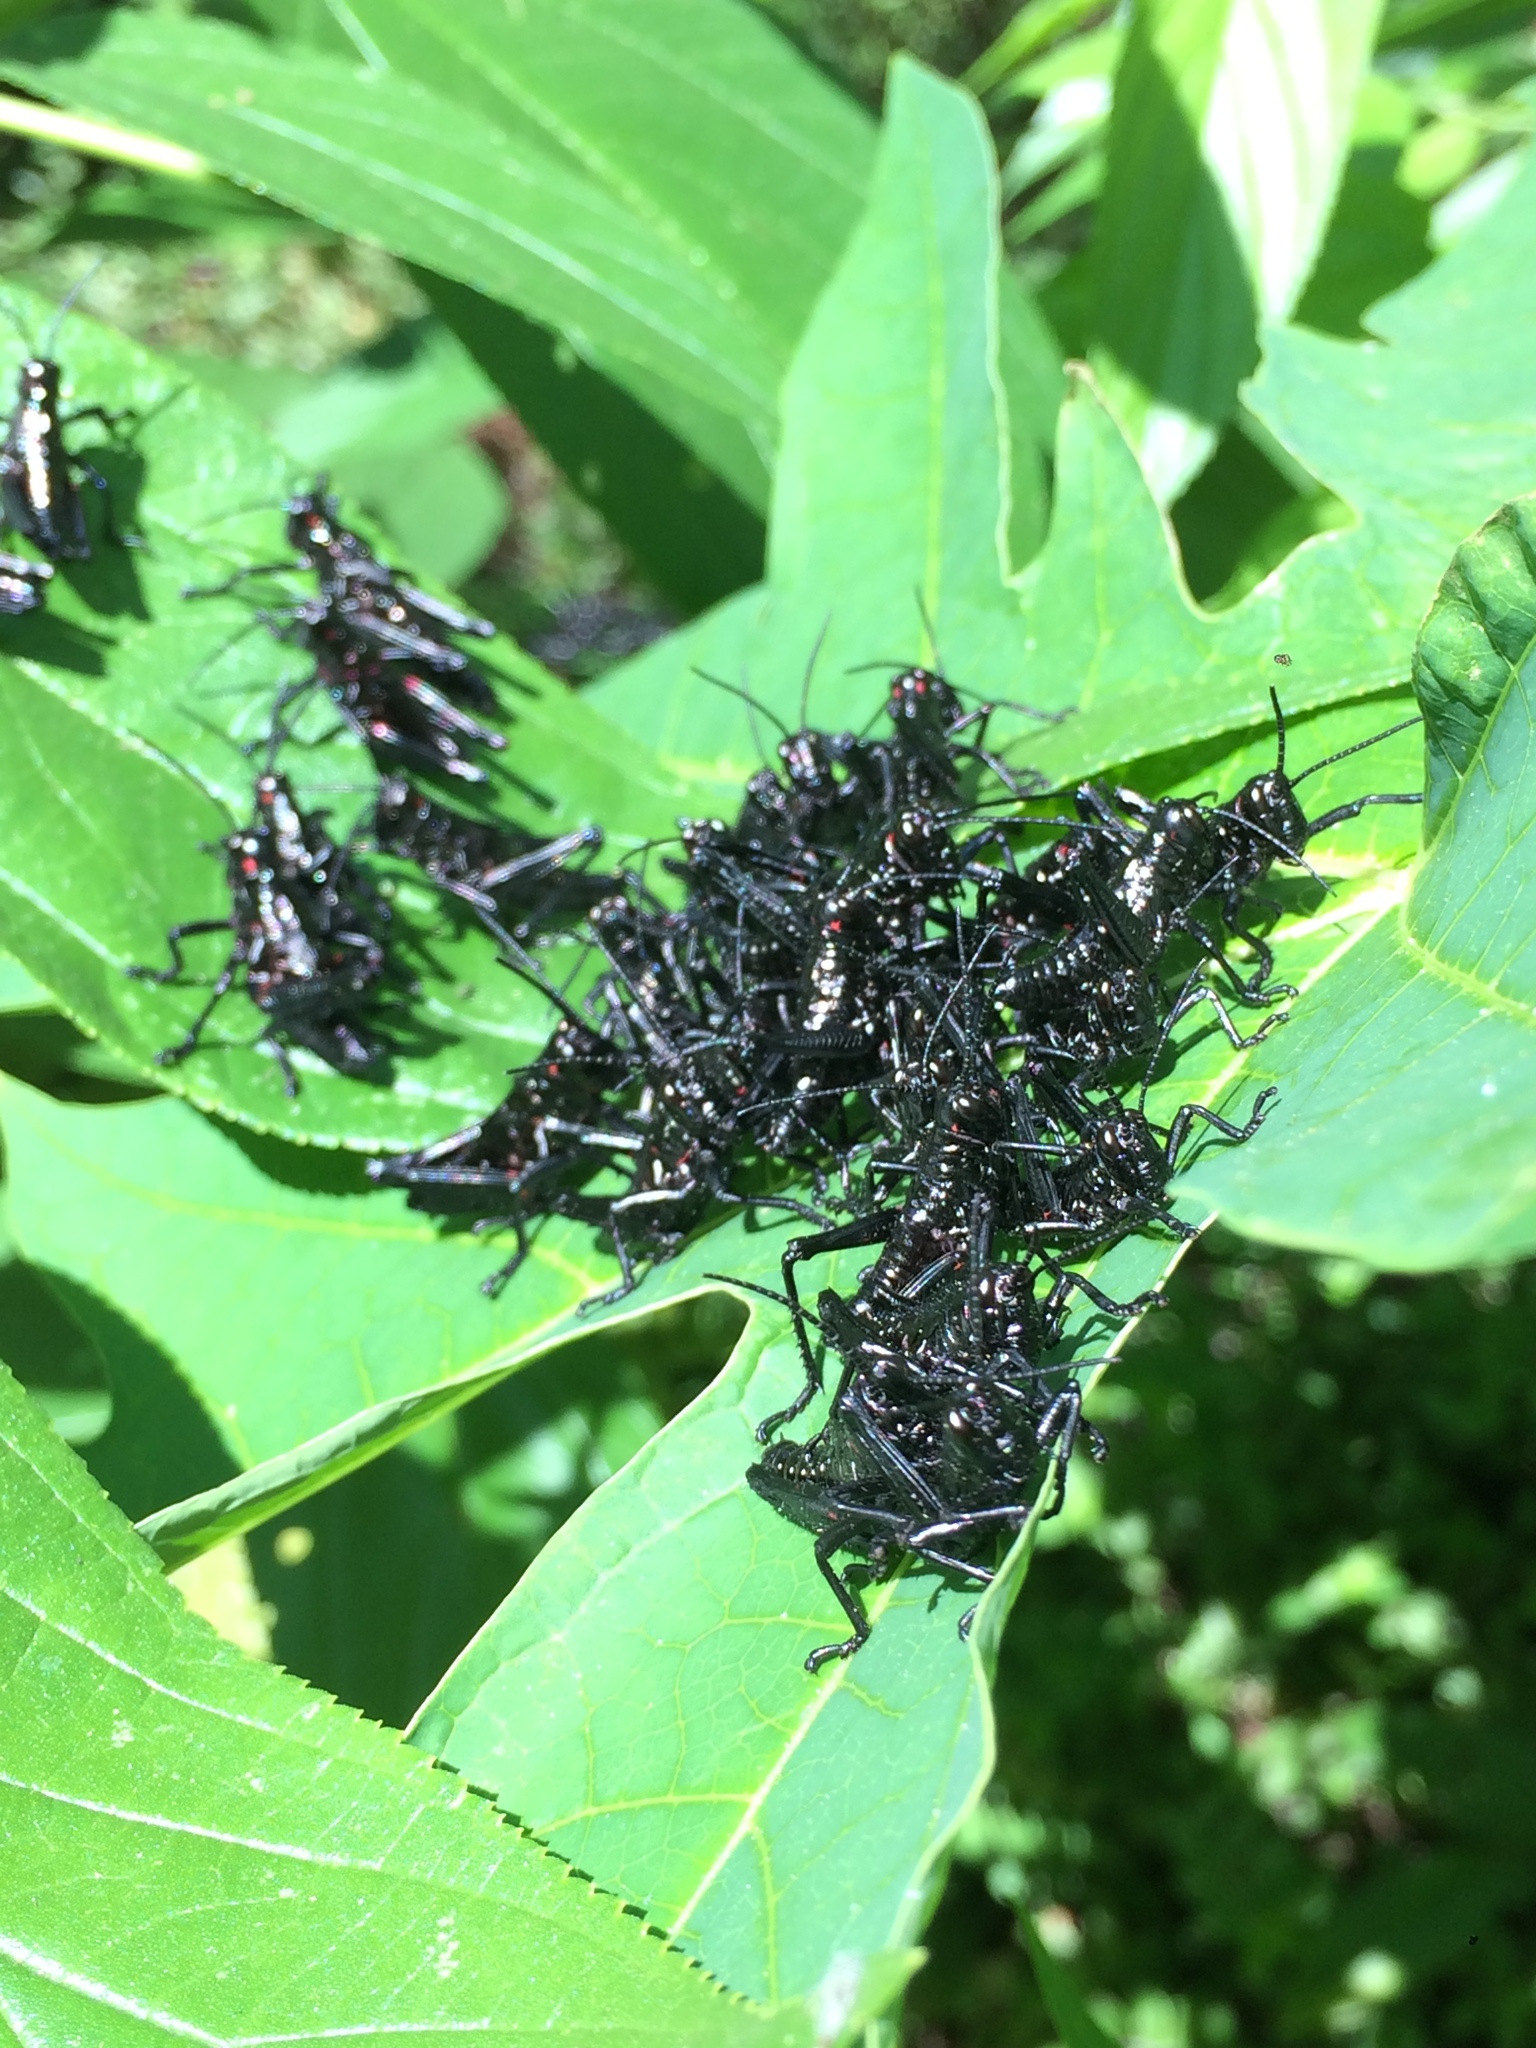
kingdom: Animalia
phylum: Arthropoda
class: Insecta
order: Orthoptera
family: Romaleidae
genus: Chromacris
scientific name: Chromacris speciosa
